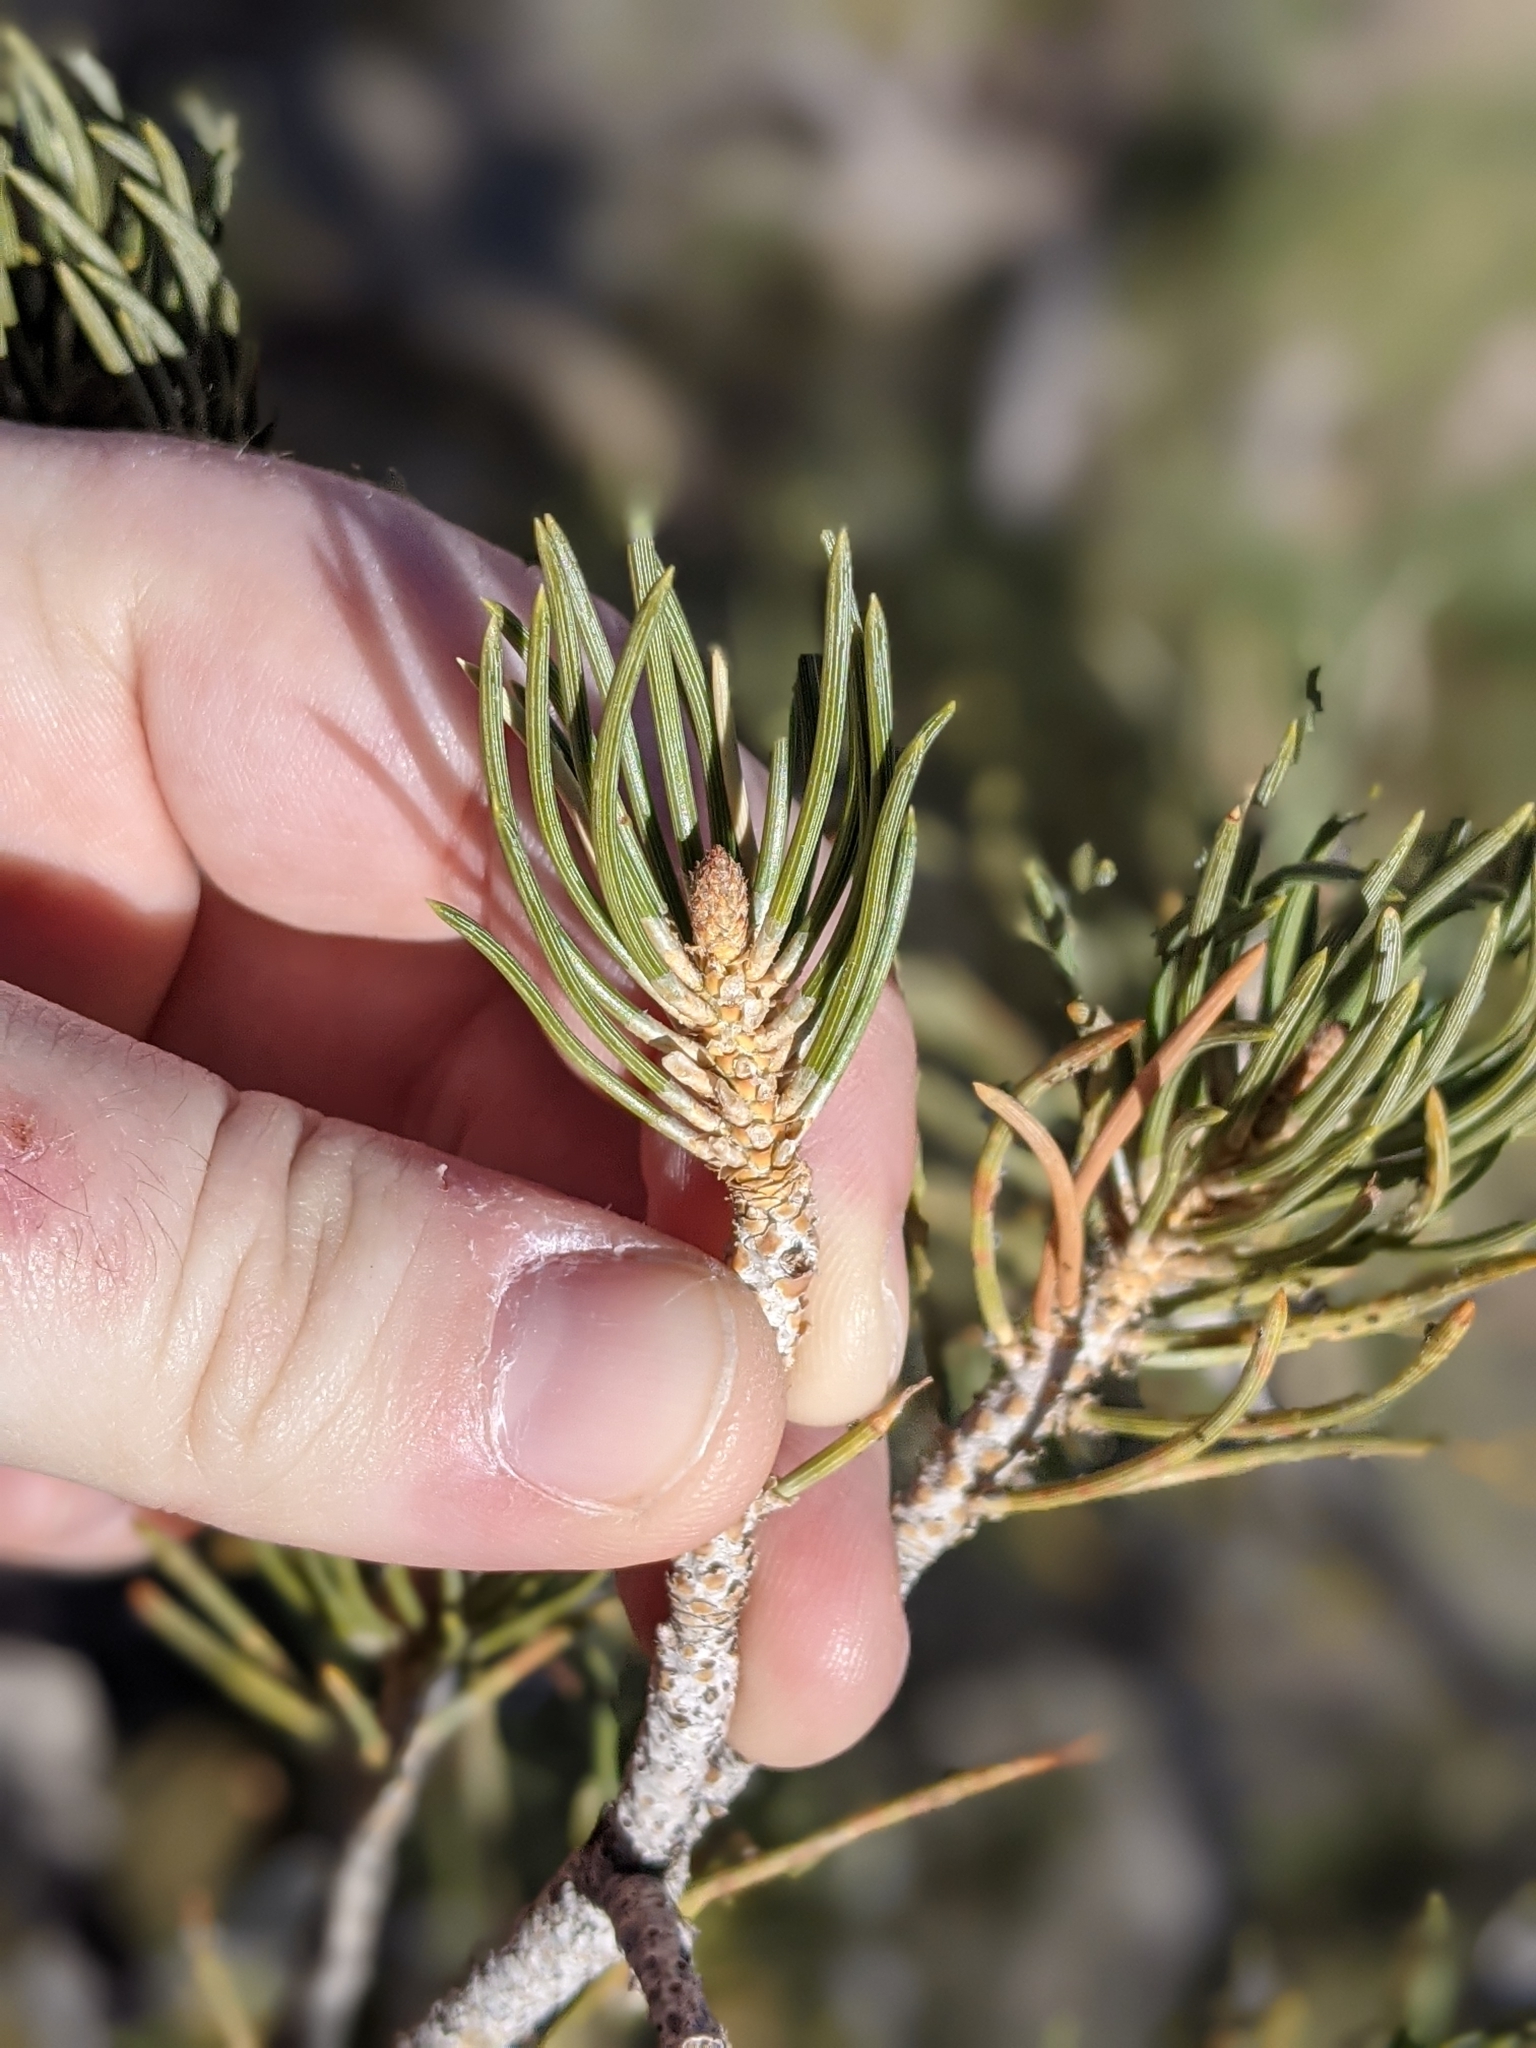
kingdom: Plantae
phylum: Tracheophyta
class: Pinopsida
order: Pinales
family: Pinaceae
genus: Pinus
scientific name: Pinus monophylla
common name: One-leaved nut pine
